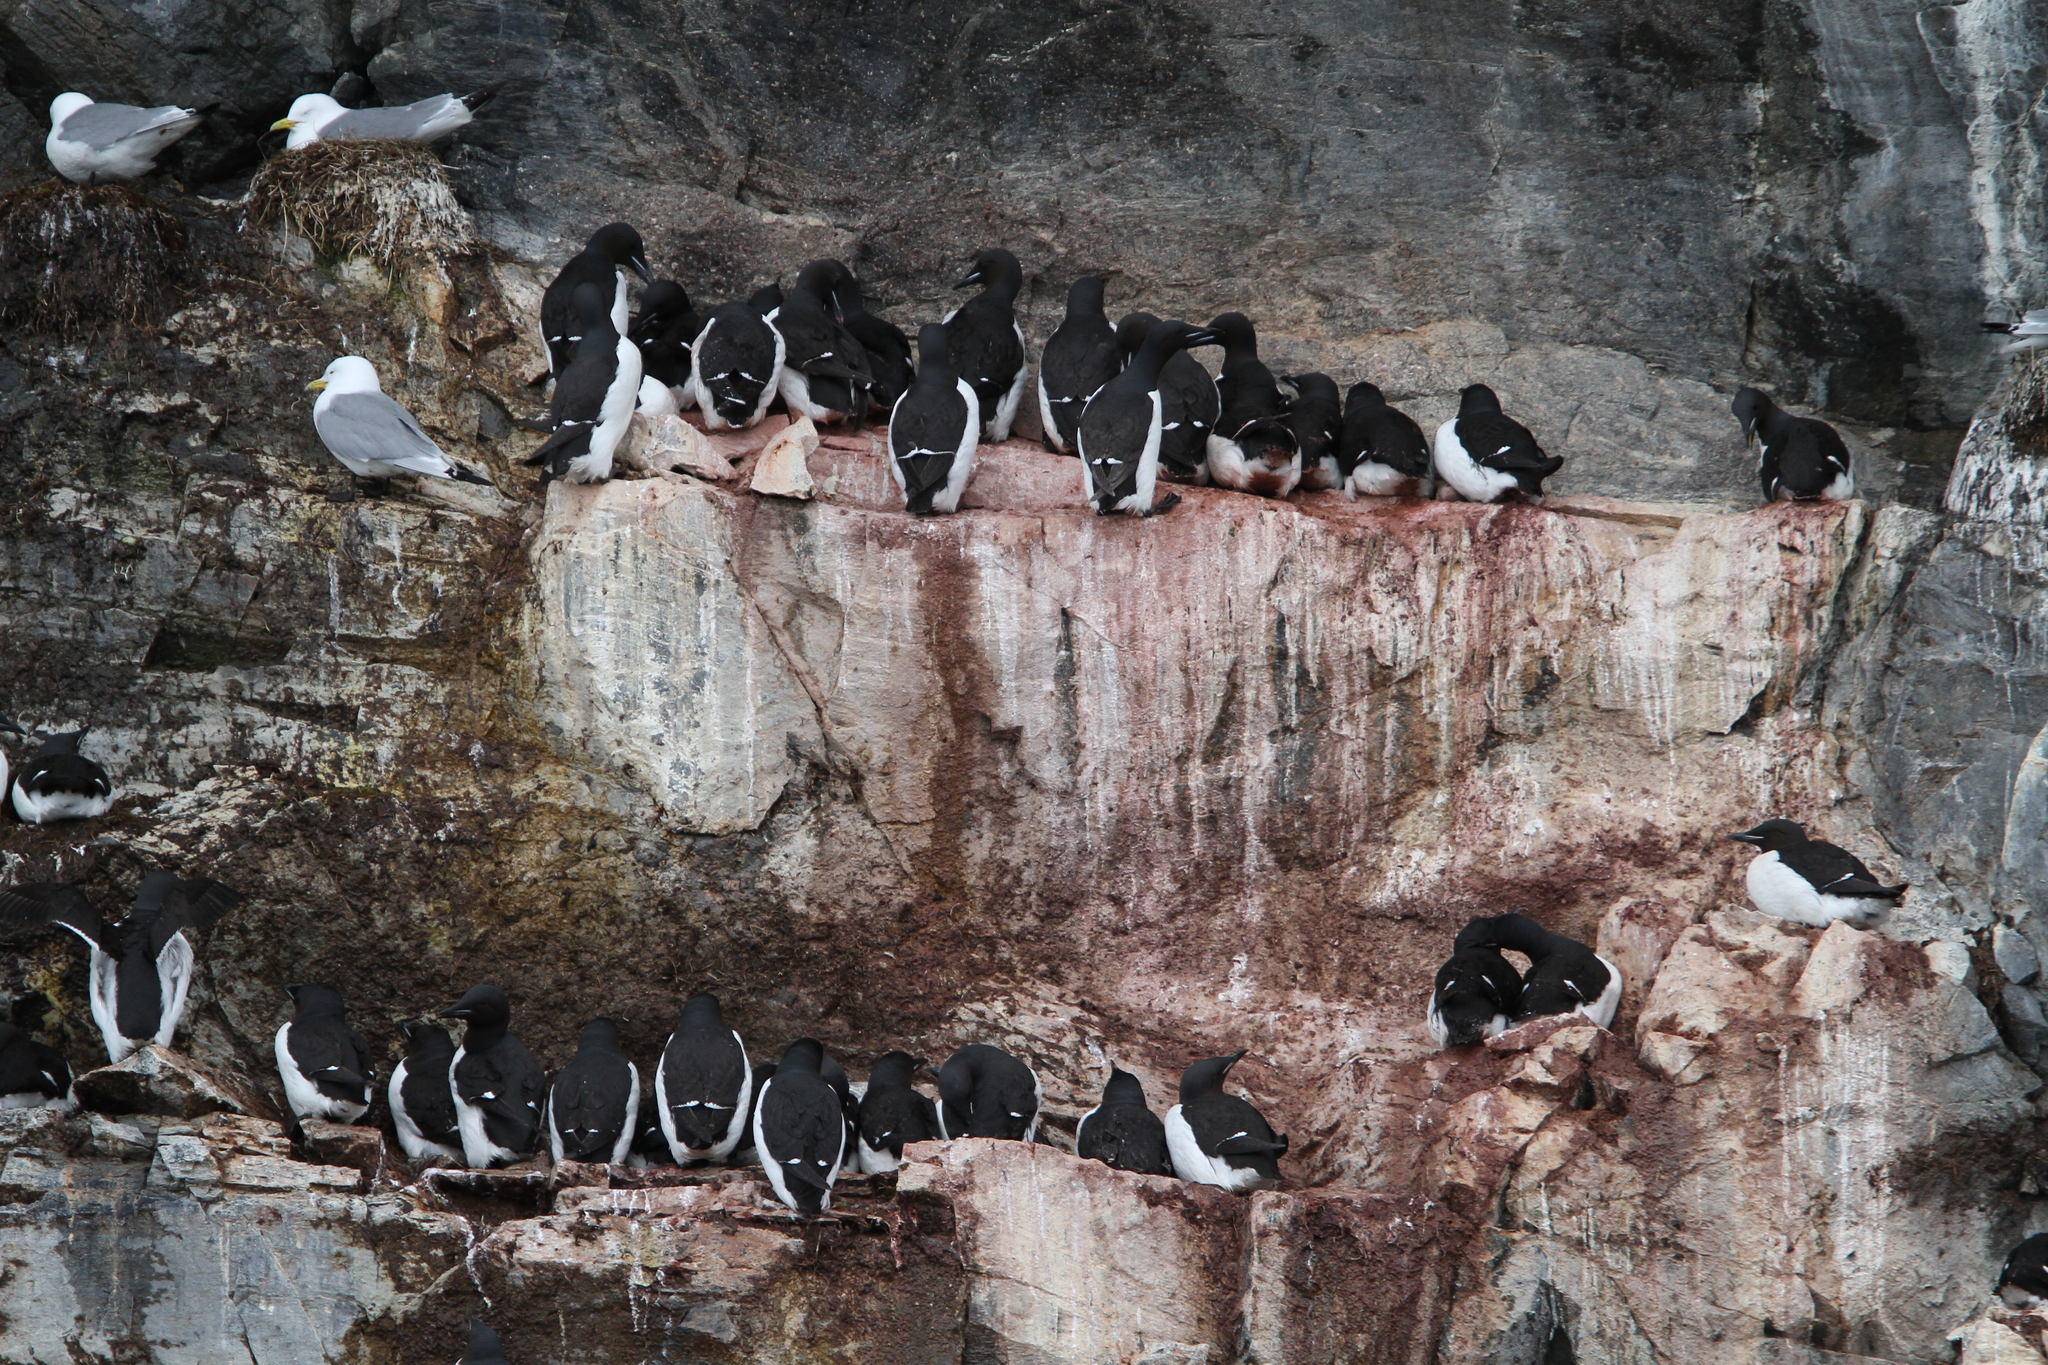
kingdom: Animalia
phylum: Chordata
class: Aves
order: Charadriiformes
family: Alcidae
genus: Uria
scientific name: Uria lomvia
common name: Thick-billed murre
